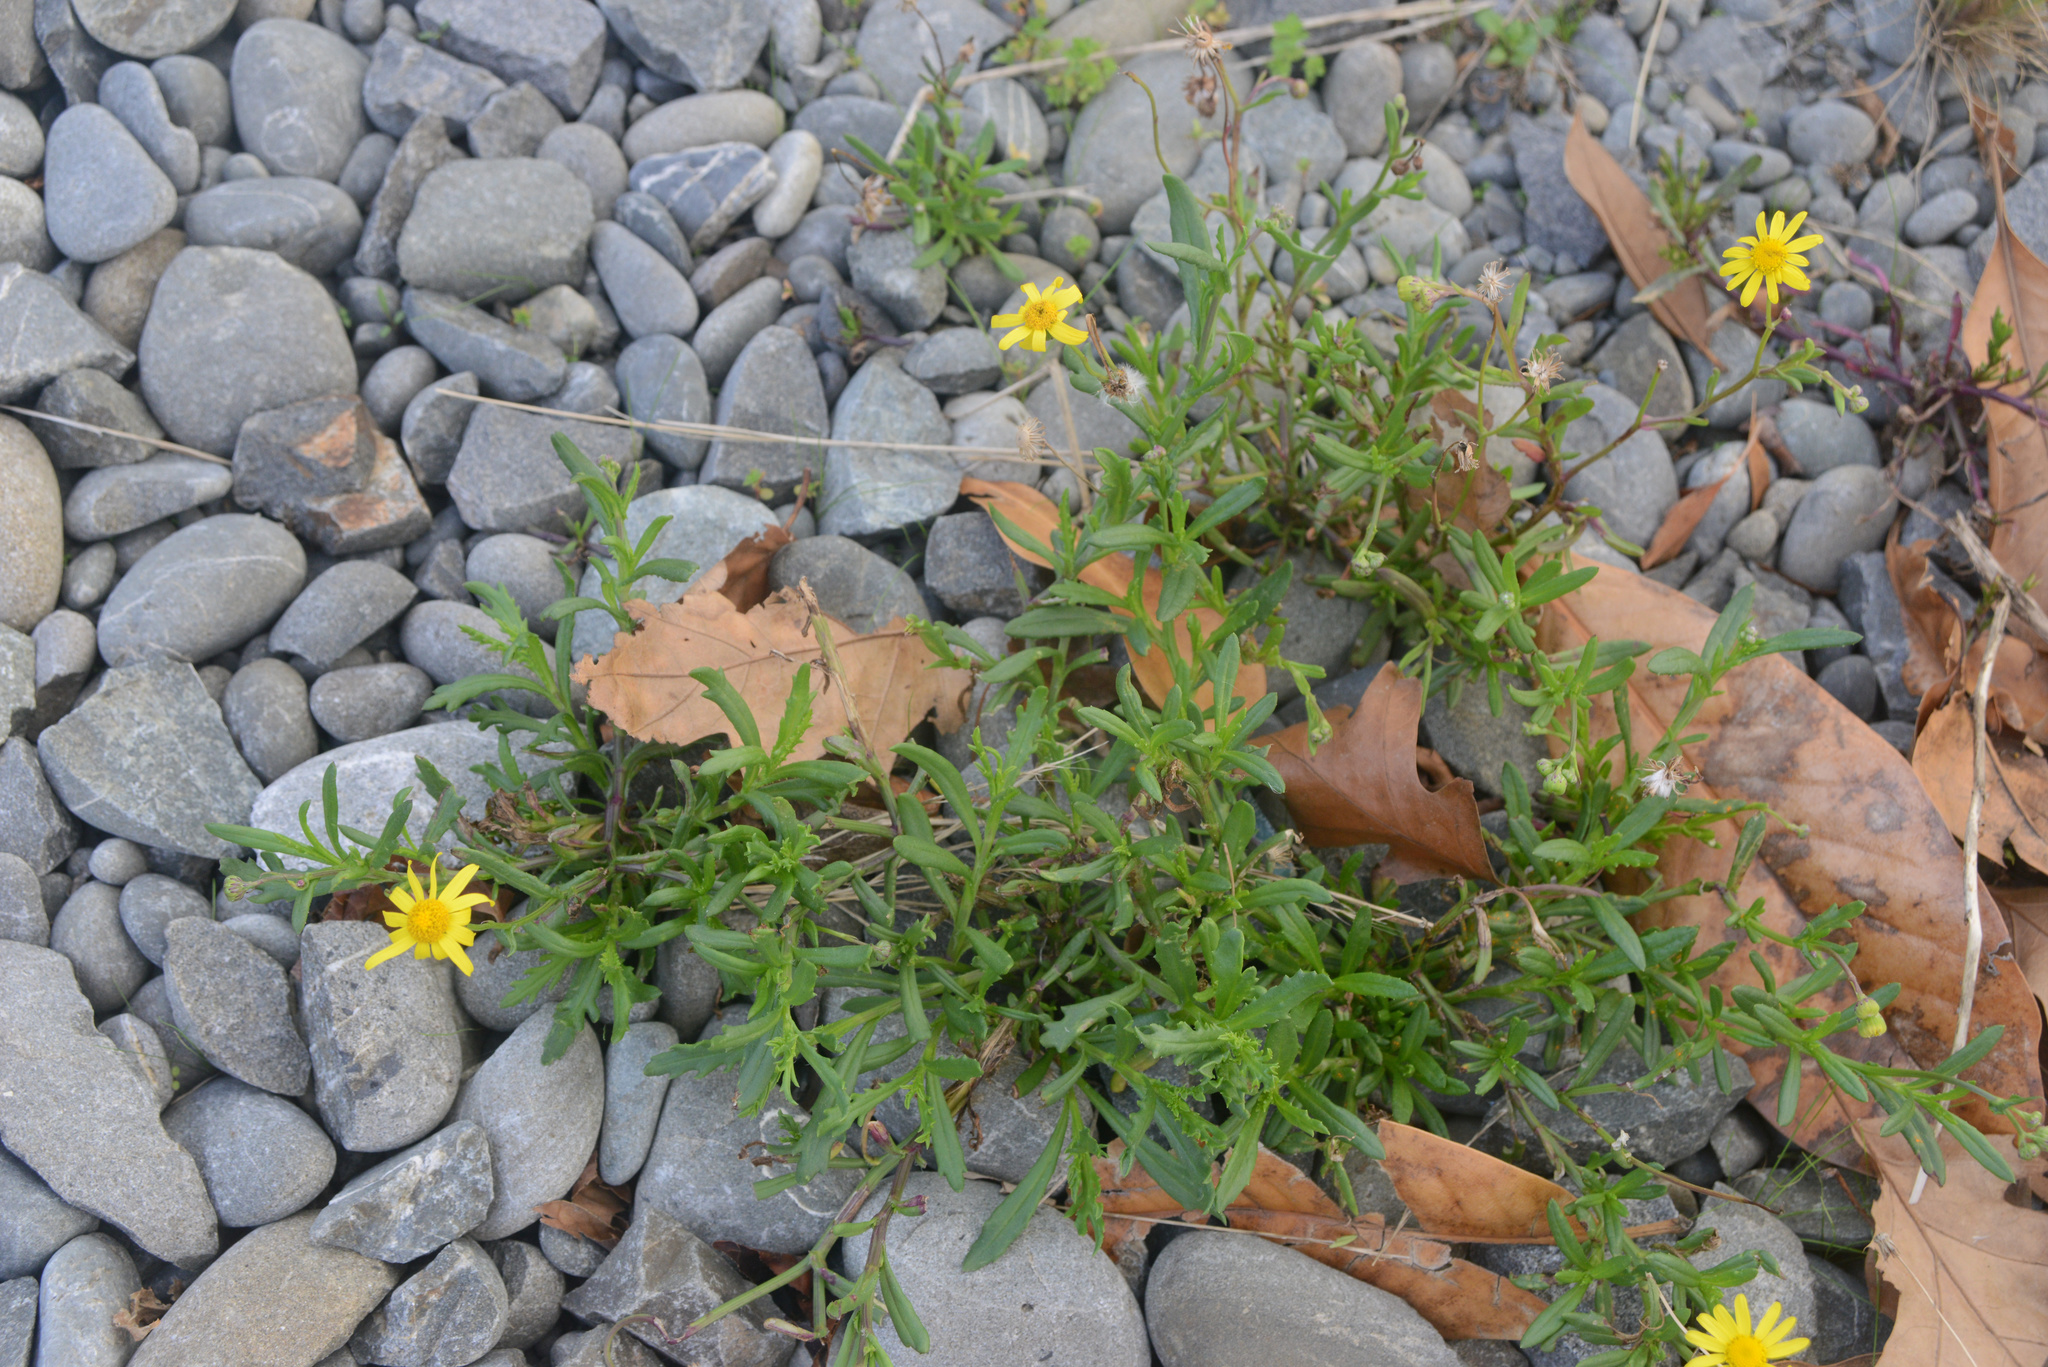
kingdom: Plantae
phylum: Tracheophyta
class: Magnoliopsida
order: Asterales
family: Asteraceae
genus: Senecio
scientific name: Senecio skirrhodon
